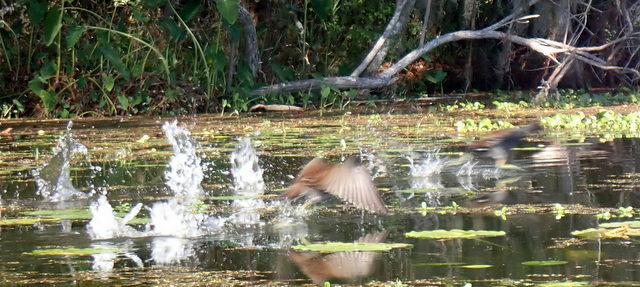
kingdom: Animalia
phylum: Chordata
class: Aves
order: Gruiformes
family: Rallidae
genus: Gallinula
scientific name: Gallinula chloropus
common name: Common moorhen
